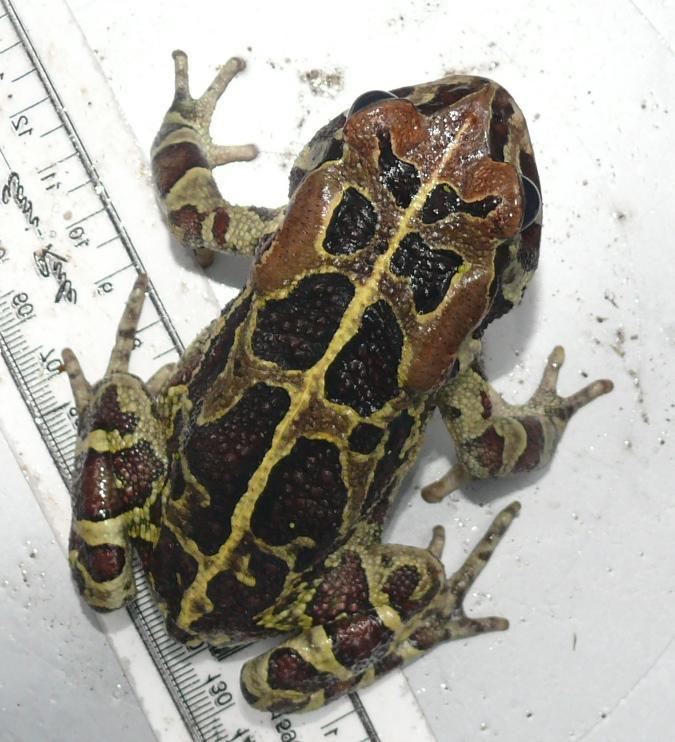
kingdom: Animalia
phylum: Chordata
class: Amphibia
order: Anura
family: Bufonidae
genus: Sclerophrys
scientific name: Sclerophrys pantherina
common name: Panther toad
